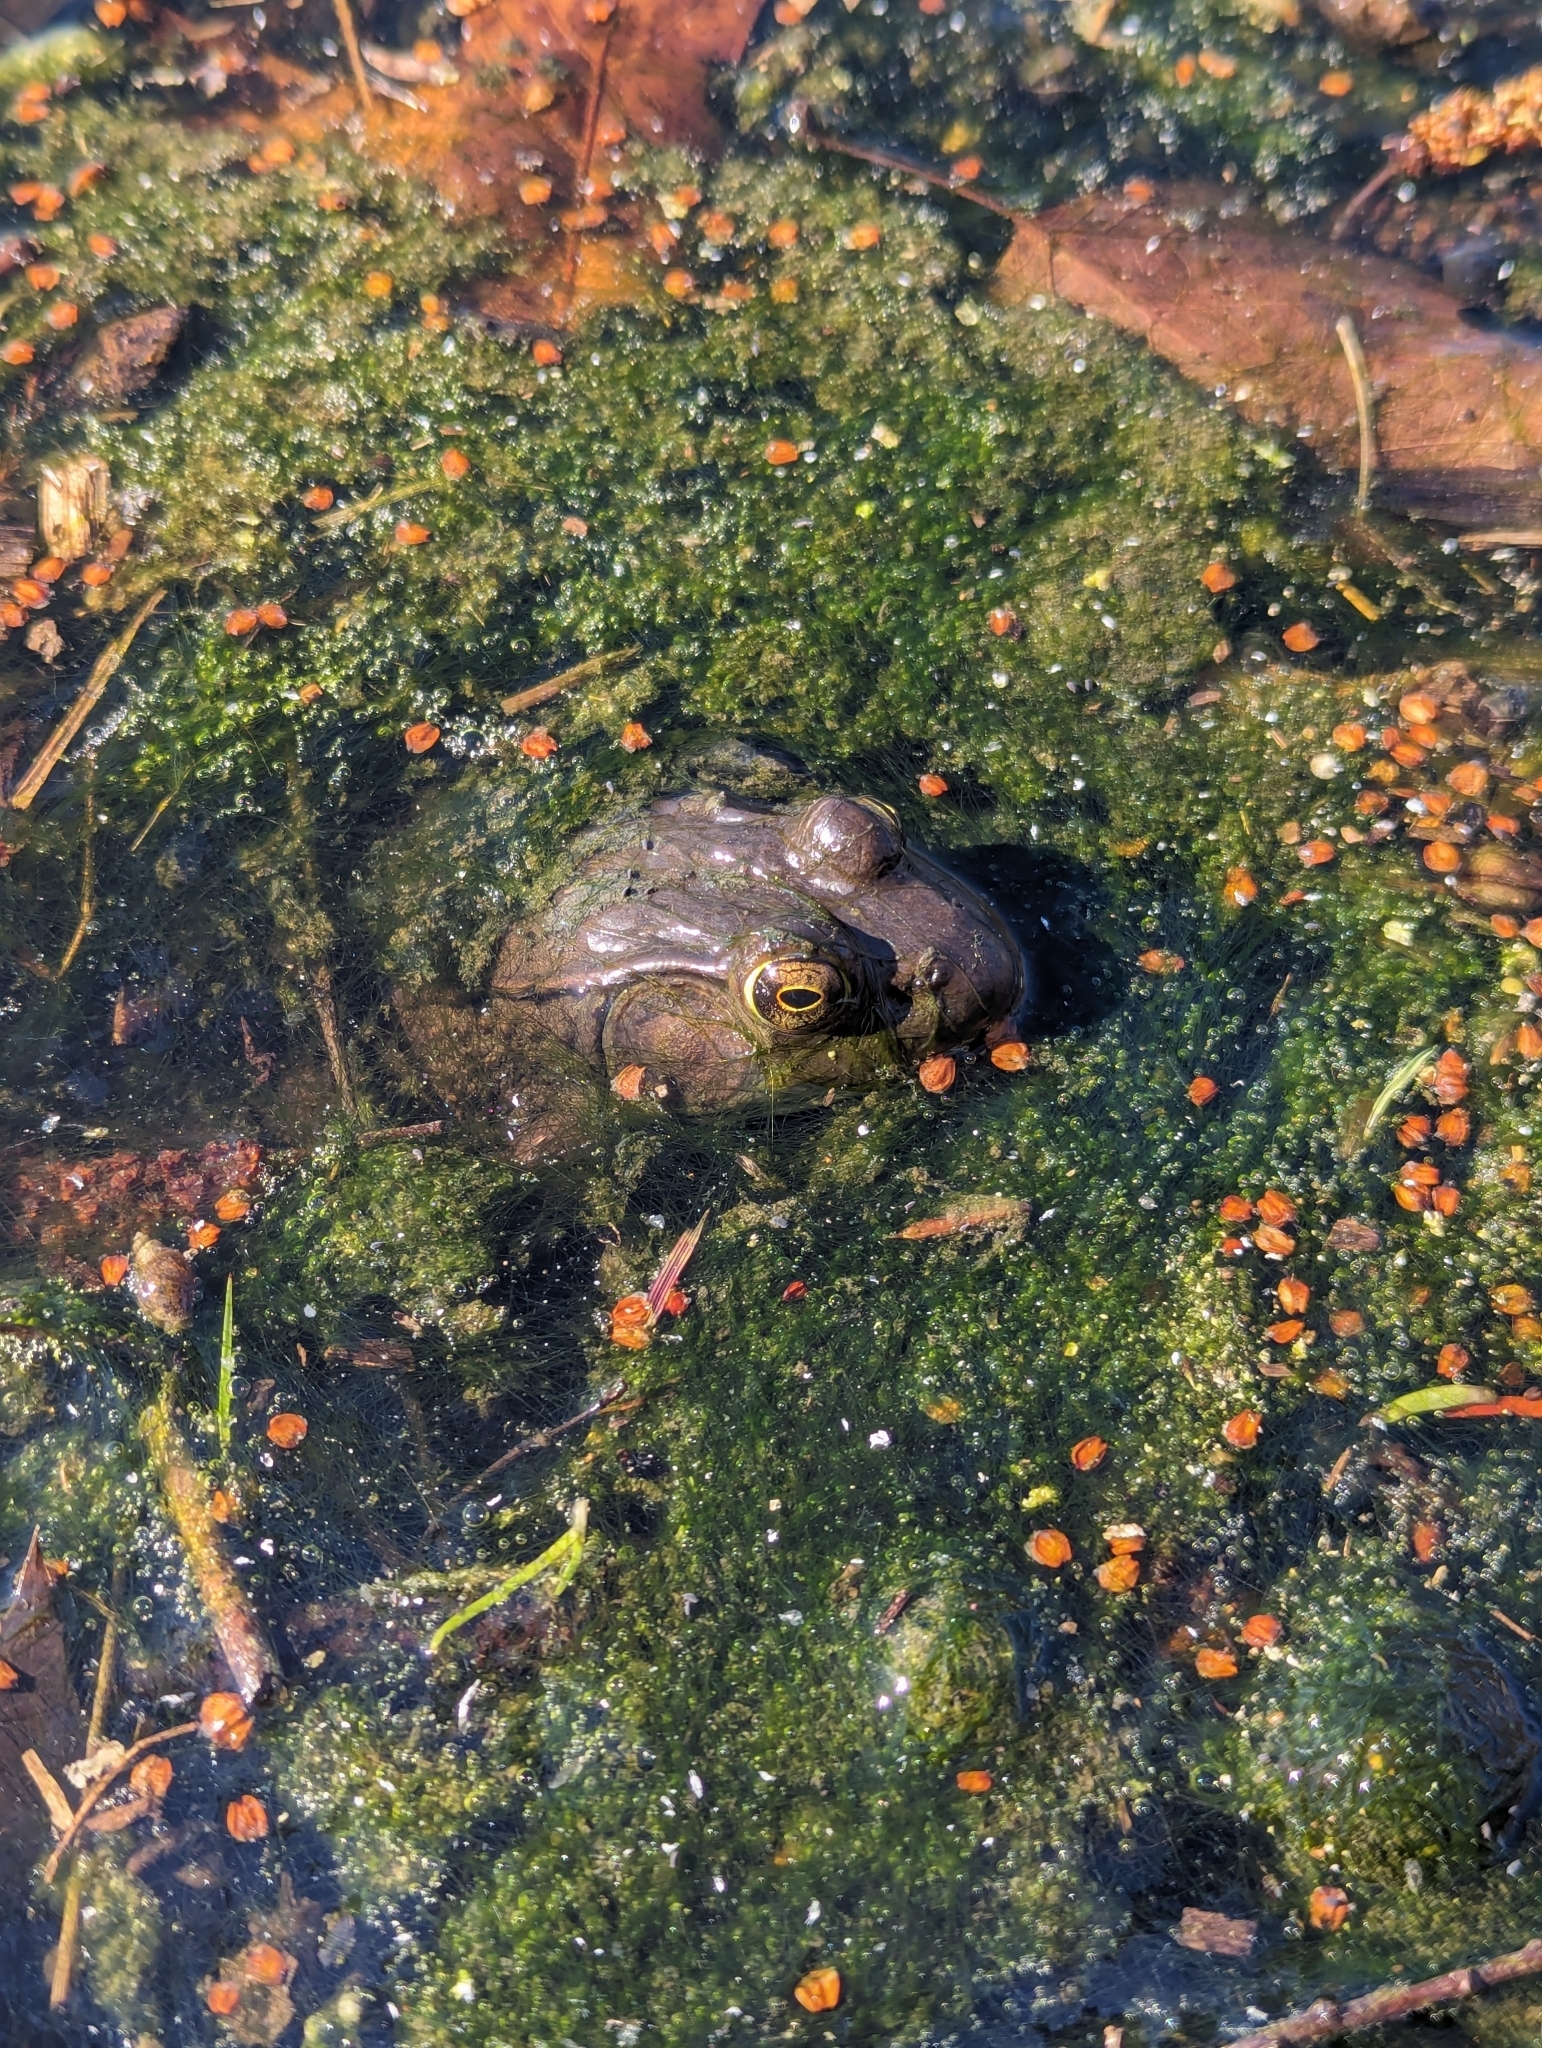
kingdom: Animalia
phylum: Chordata
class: Amphibia
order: Anura
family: Ranidae
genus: Lithobates
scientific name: Lithobates clamitans
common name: Green frog
